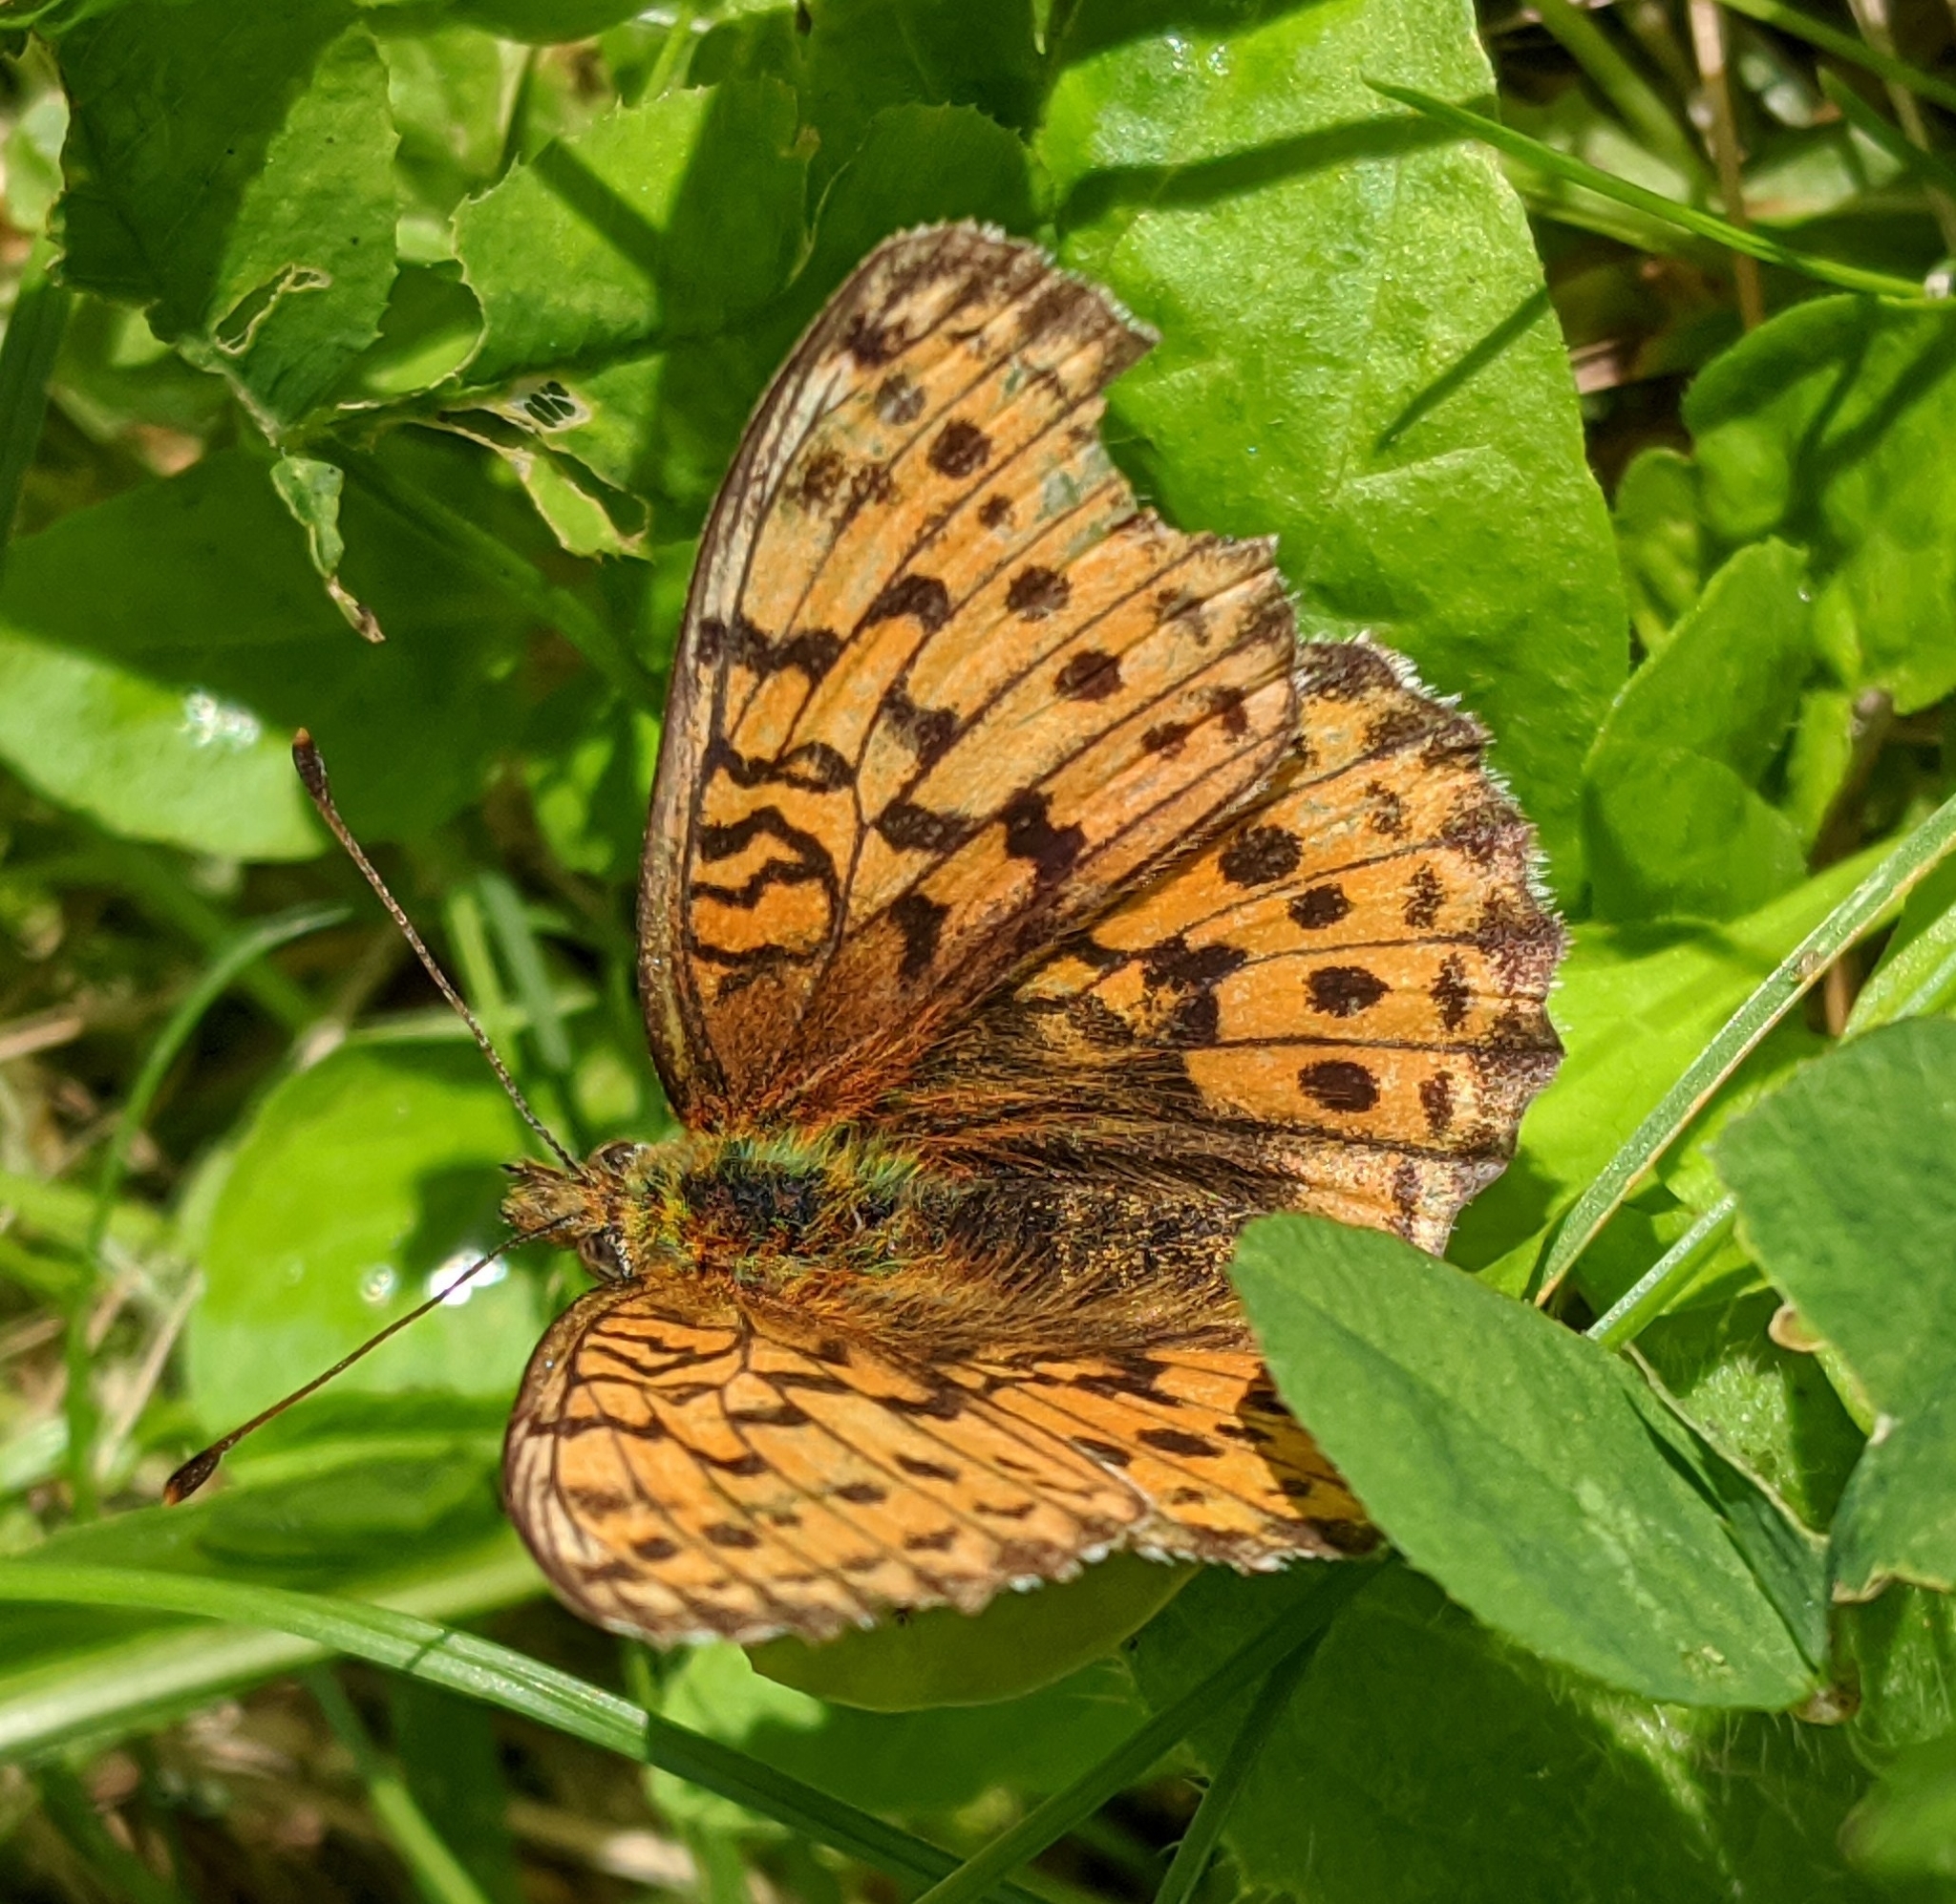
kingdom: Animalia
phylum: Arthropoda
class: Insecta
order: Lepidoptera
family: Nymphalidae
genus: Brenthis
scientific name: Brenthis ino
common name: Lesser marbled fritillary
